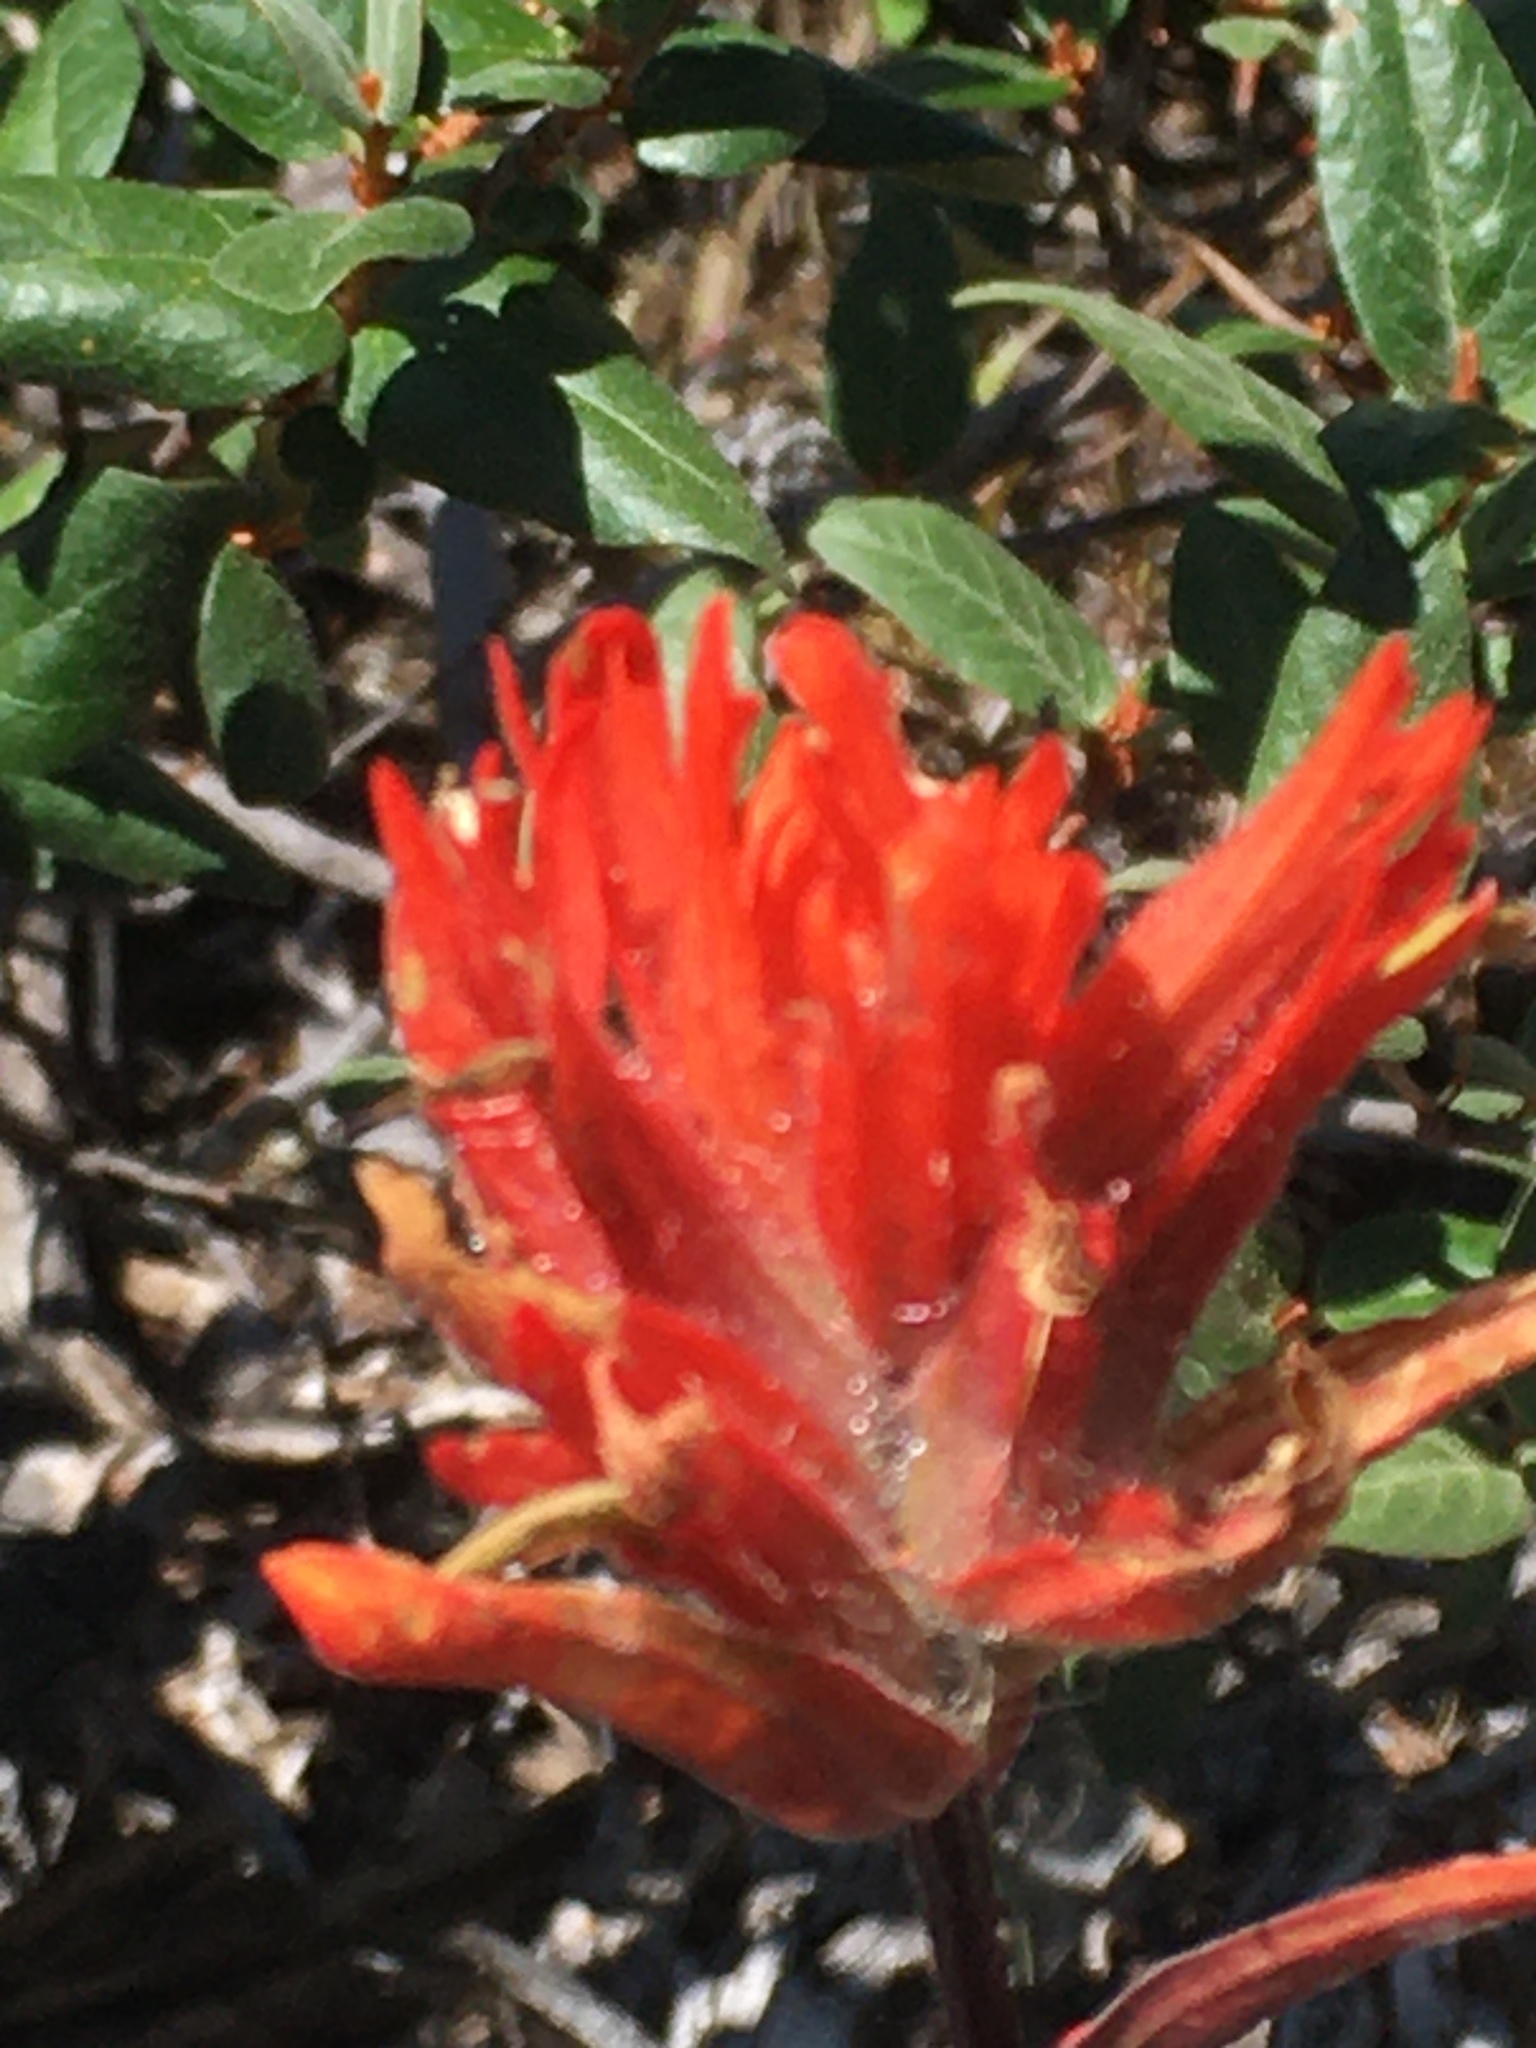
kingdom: Plantae
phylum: Tracheophyta
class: Magnoliopsida
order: Lamiales
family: Orobanchaceae
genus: Castilleja
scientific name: Castilleja miniata
